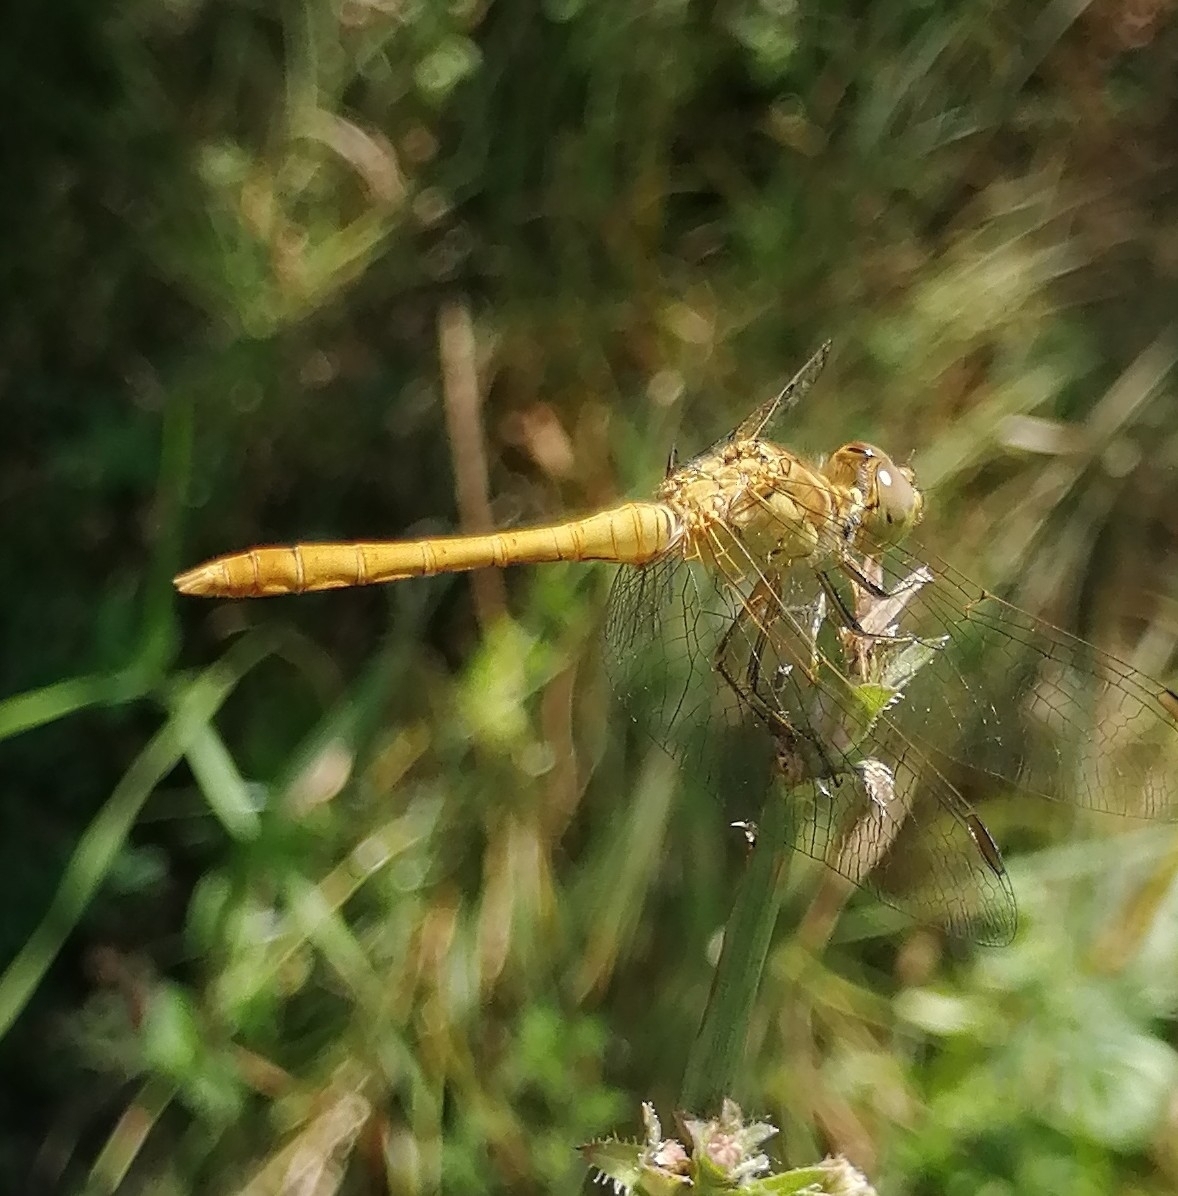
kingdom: Animalia
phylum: Arthropoda
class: Insecta
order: Odonata
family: Libellulidae
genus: Sympetrum
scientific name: Sympetrum meridionale
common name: Southern darter
